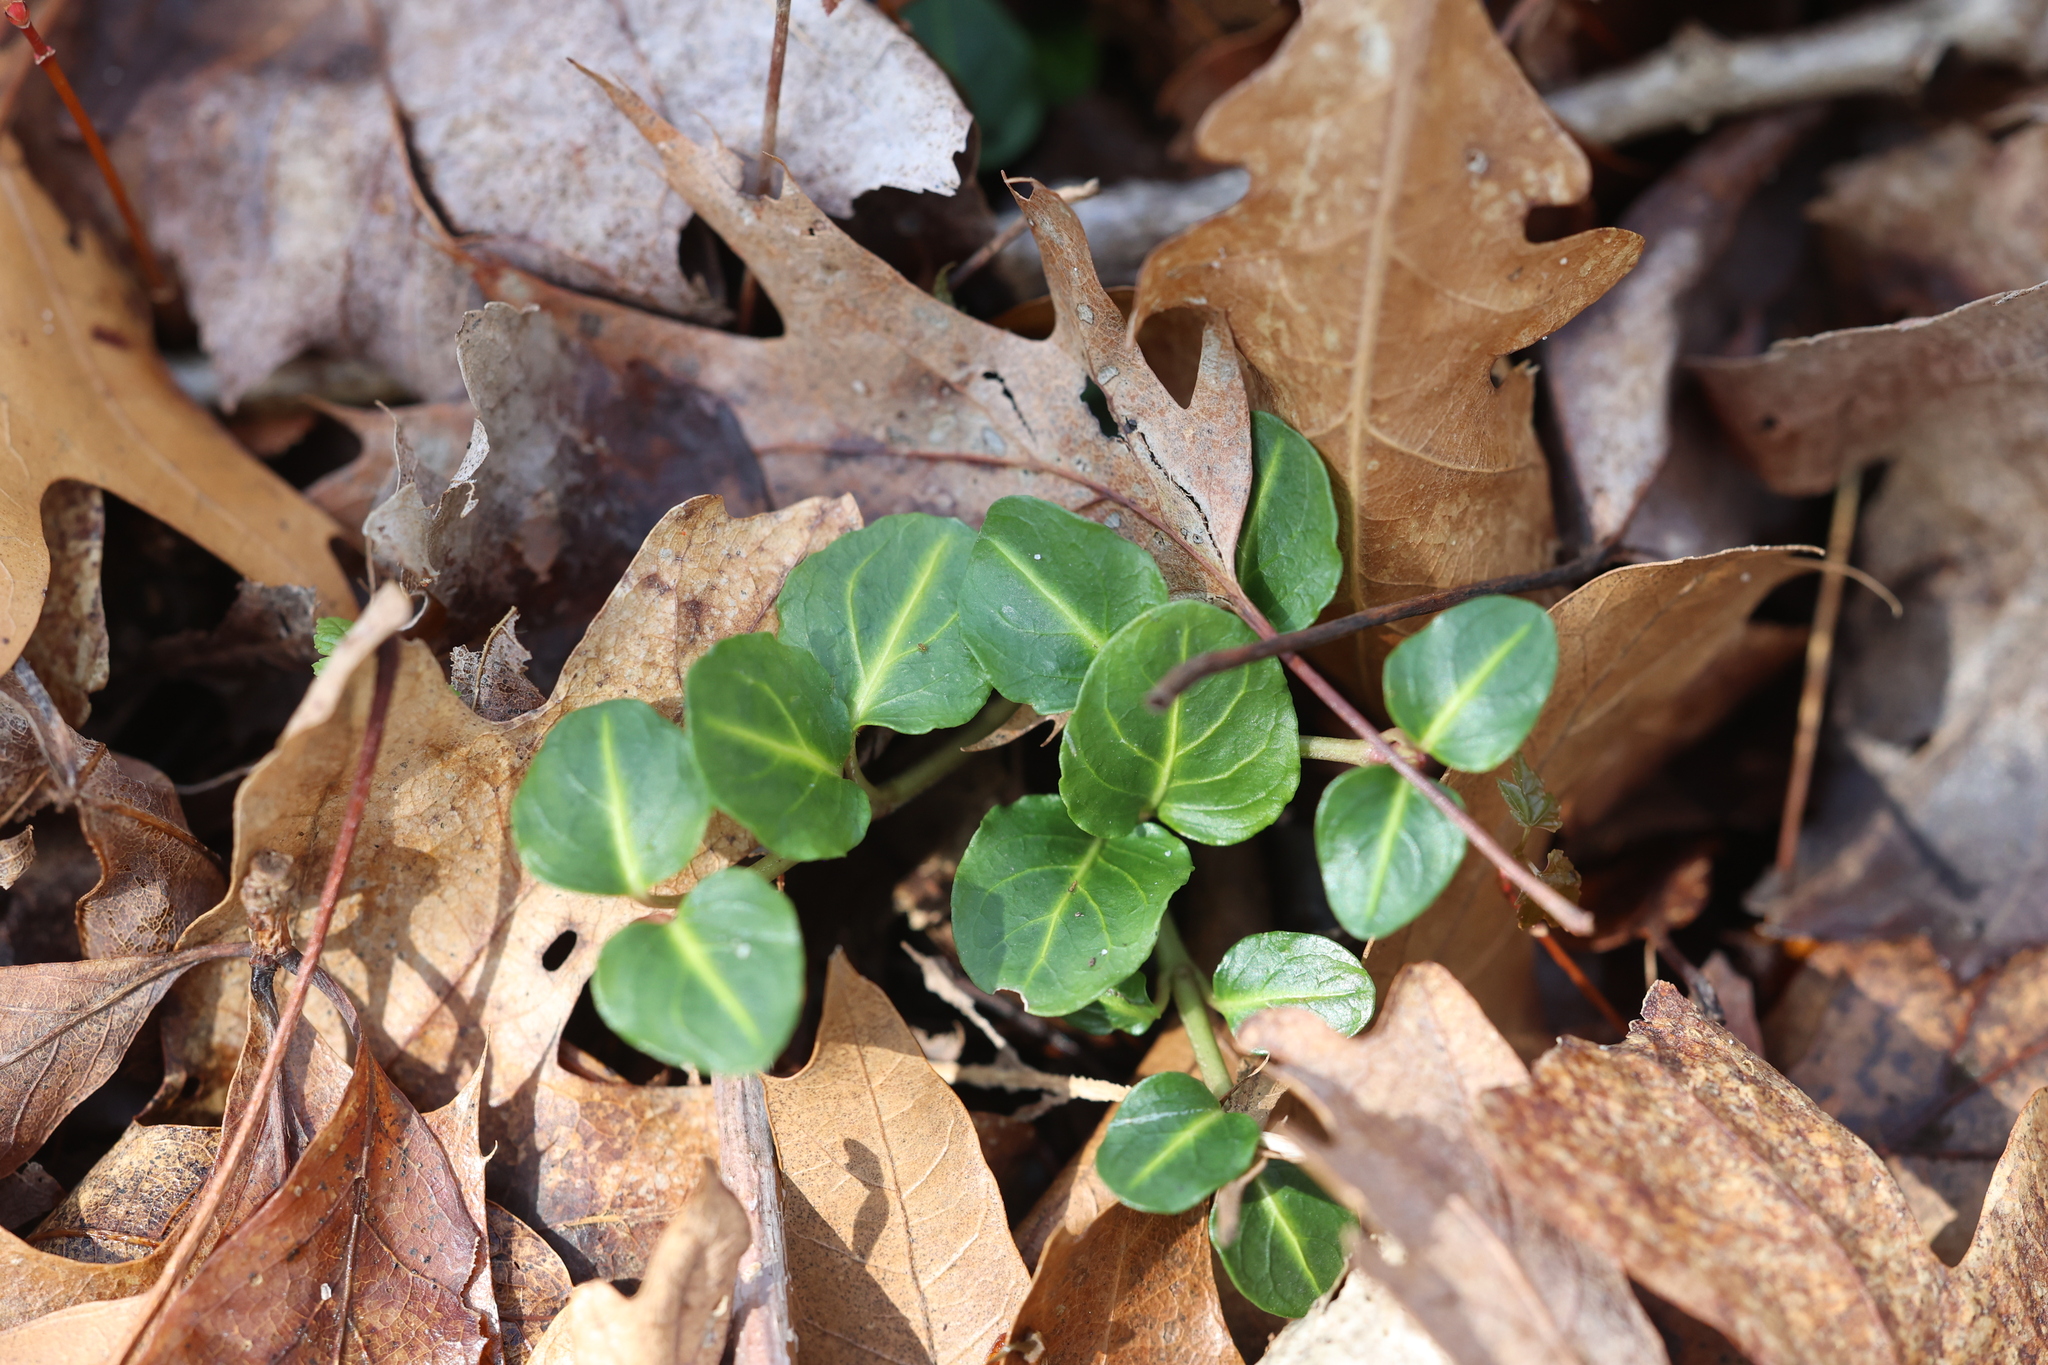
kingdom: Plantae
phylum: Tracheophyta
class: Magnoliopsida
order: Gentianales
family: Rubiaceae
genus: Mitchella
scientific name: Mitchella repens
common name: Partridge-berry
